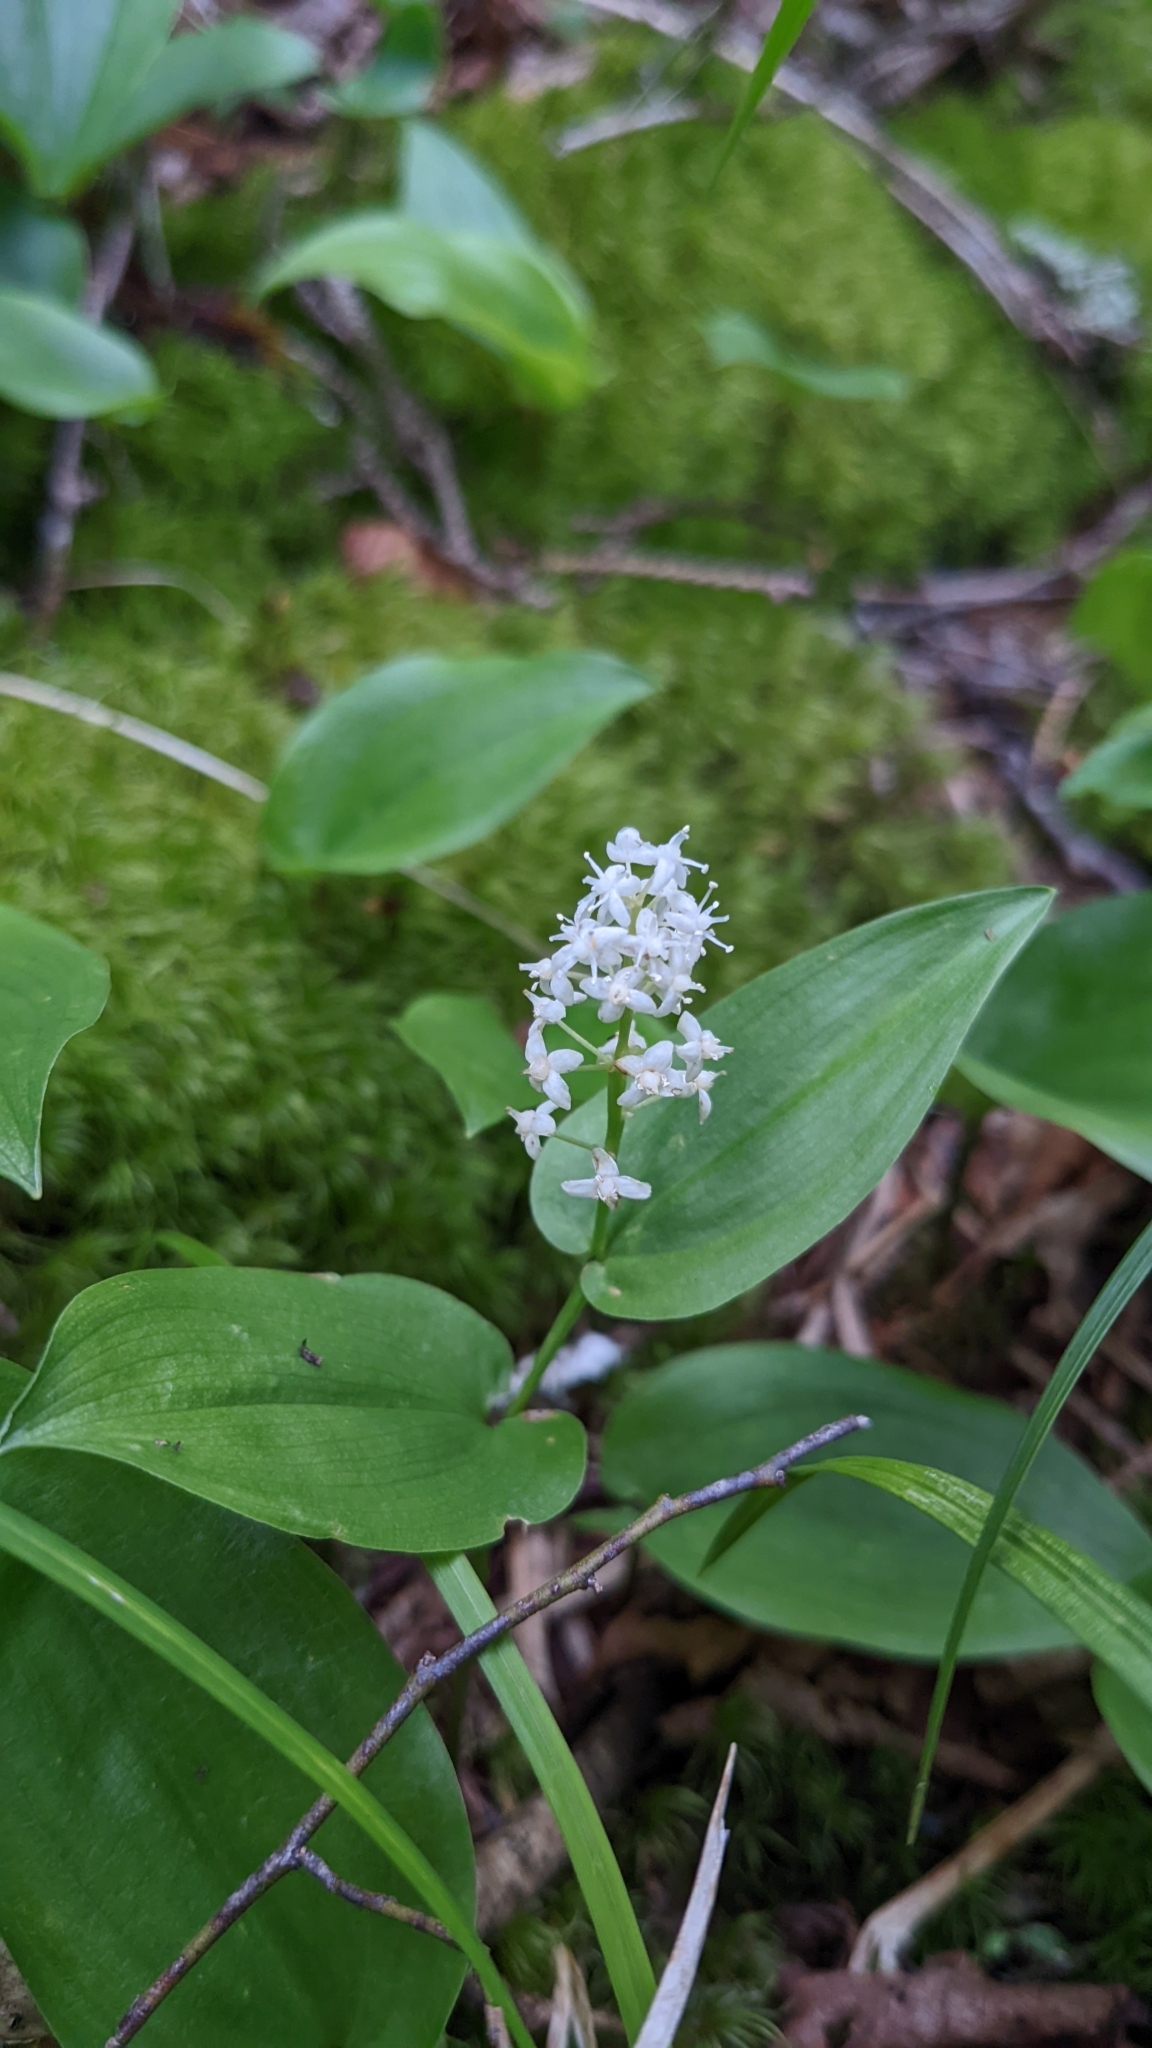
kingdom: Plantae
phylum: Tracheophyta
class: Liliopsida
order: Asparagales
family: Asparagaceae
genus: Maianthemum
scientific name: Maianthemum canadense
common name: False lily-of-the-valley
